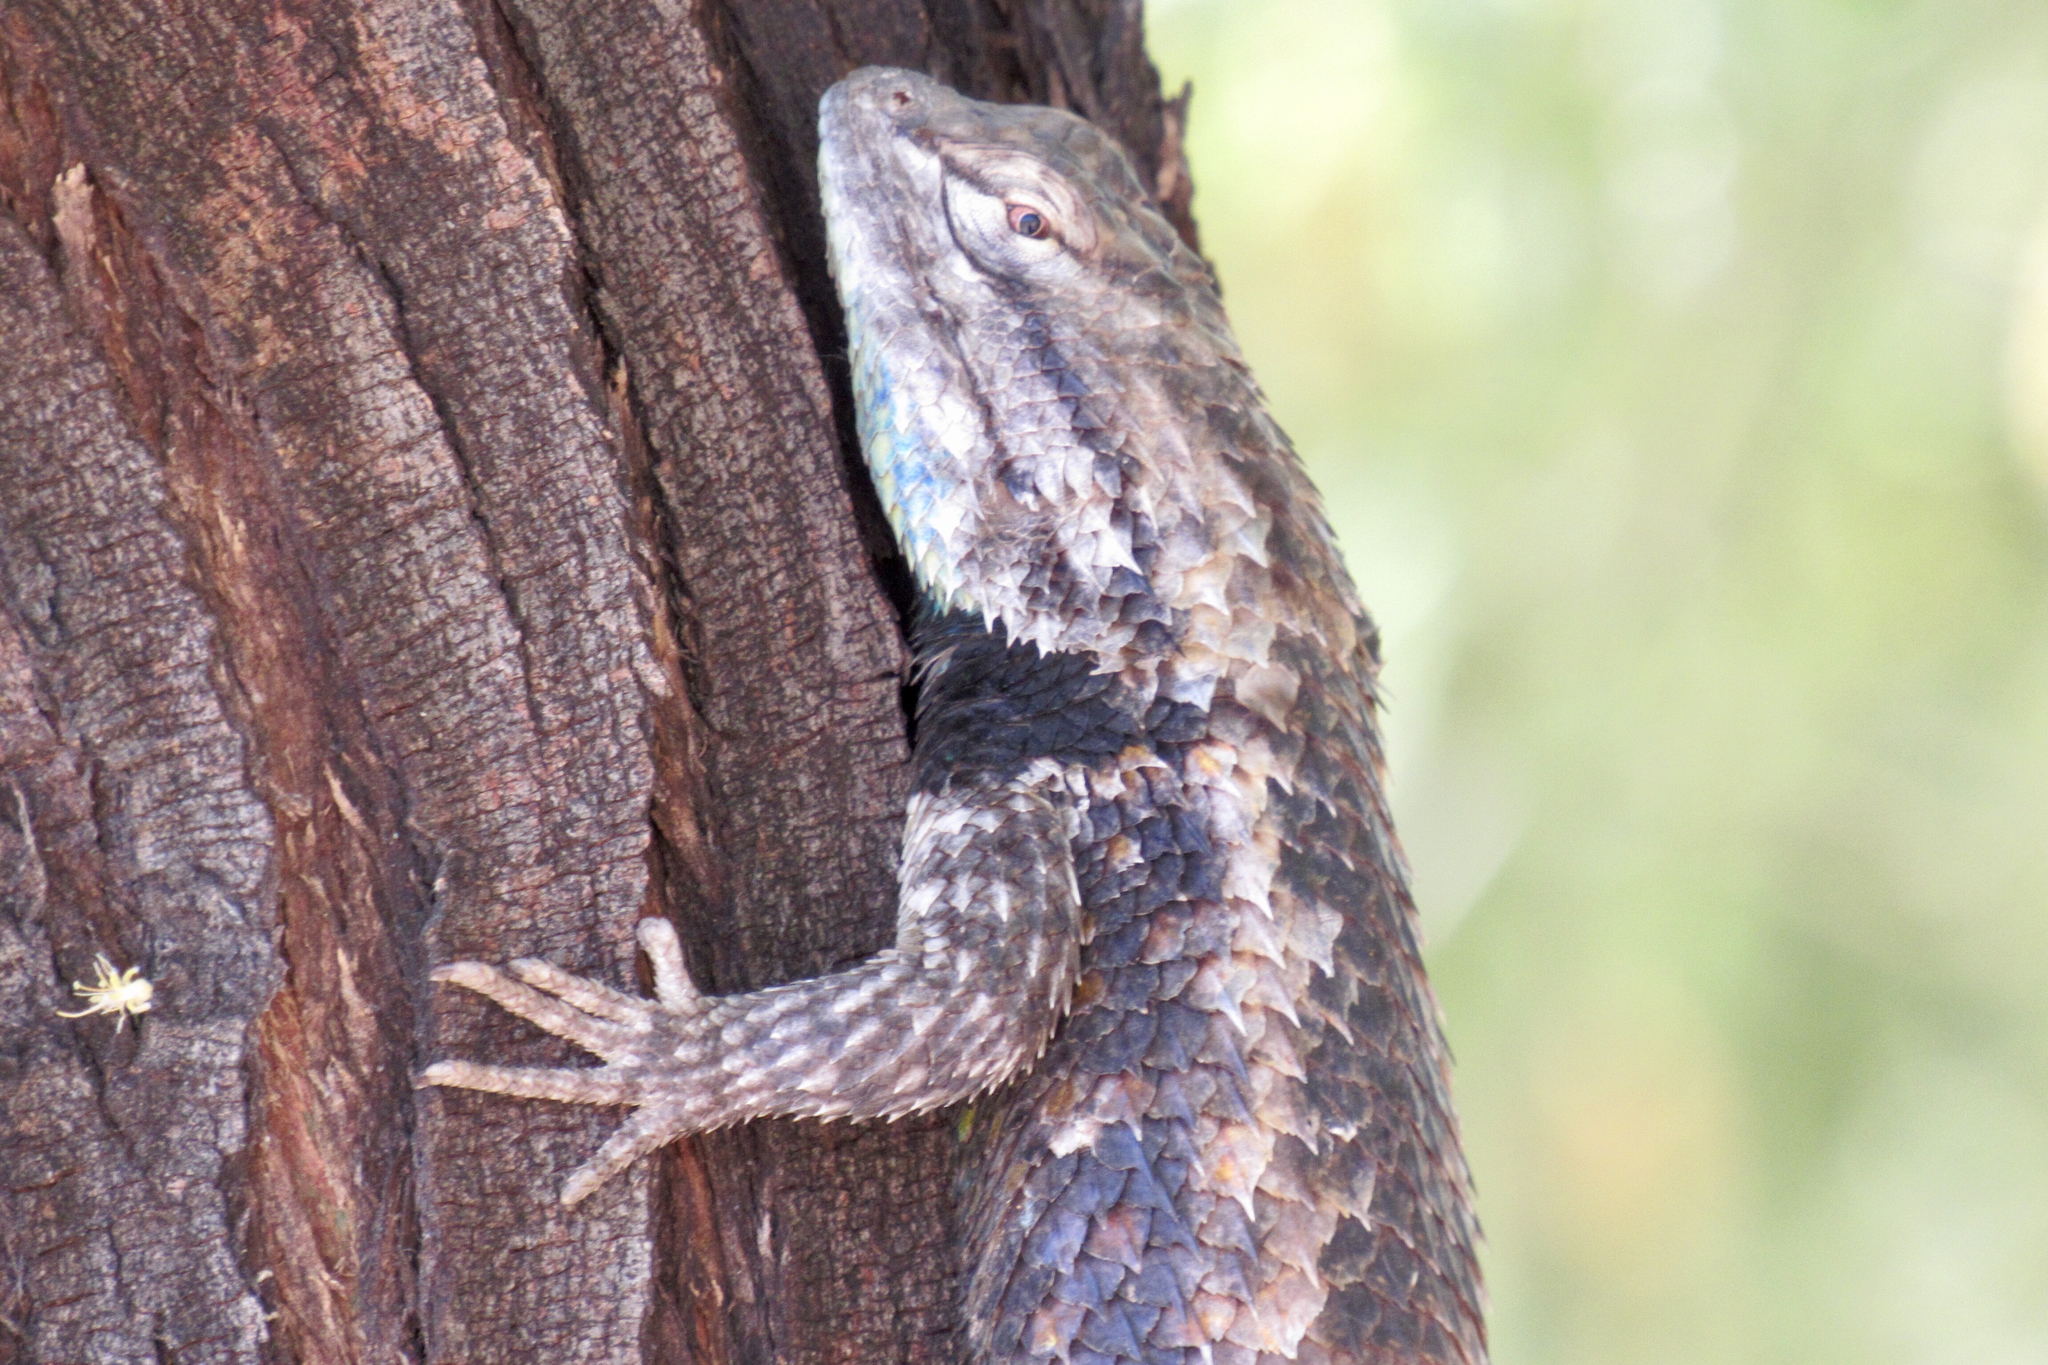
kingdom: Animalia
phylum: Chordata
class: Squamata
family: Phrynosomatidae
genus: Sceloporus
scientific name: Sceloporus magister
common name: Desert spiny lizard
